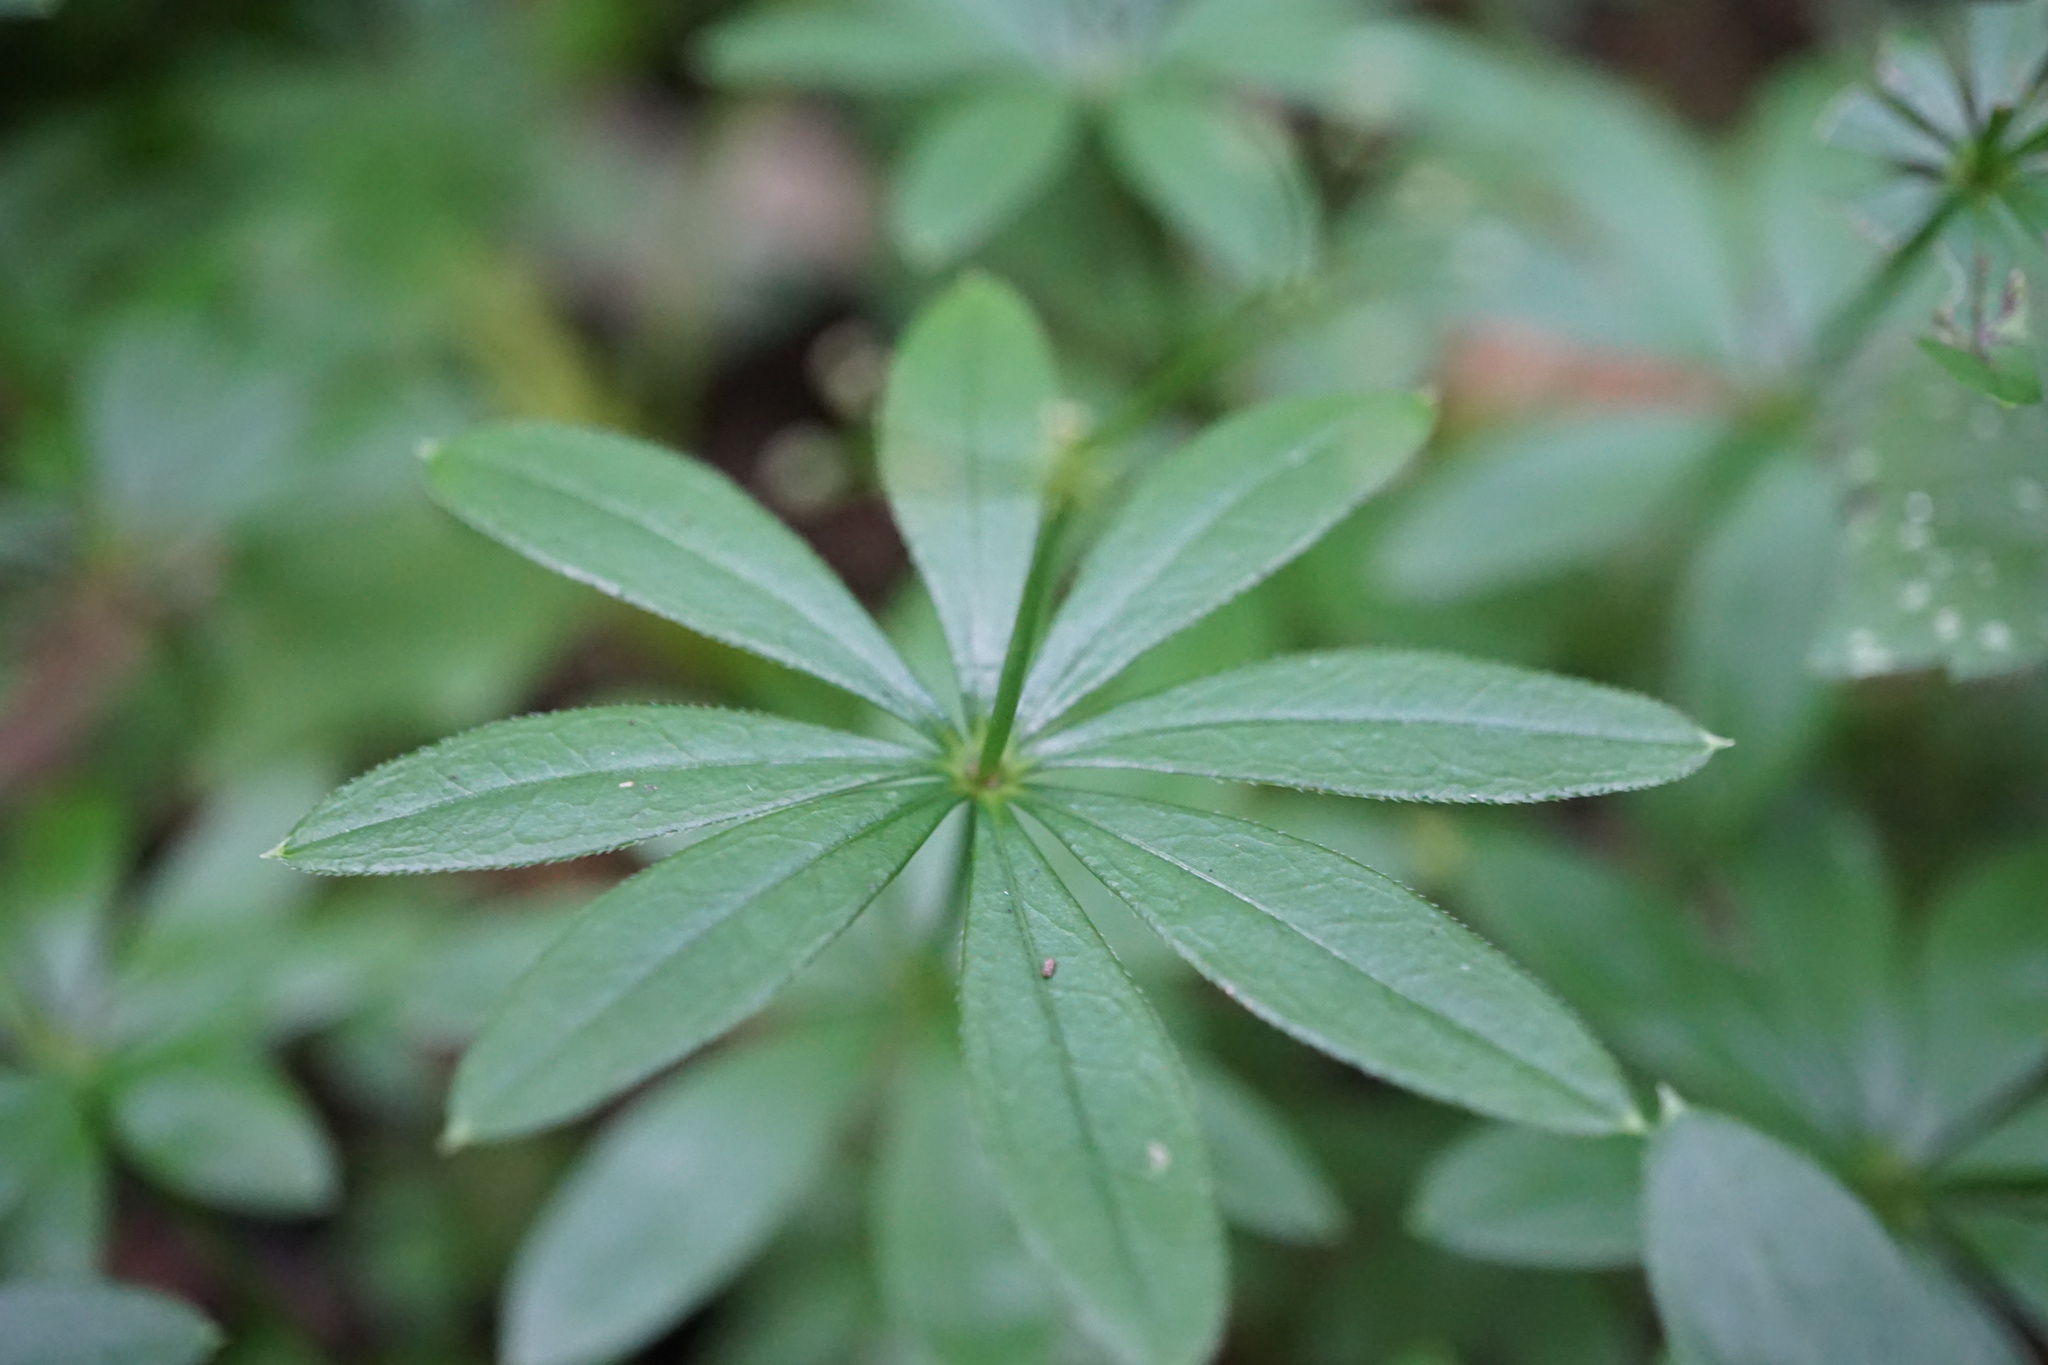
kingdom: Plantae
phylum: Tracheophyta
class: Magnoliopsida
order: Gentianales
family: Rubiaceae
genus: Galium
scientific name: Galium odoratum
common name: Sweet woodruff
